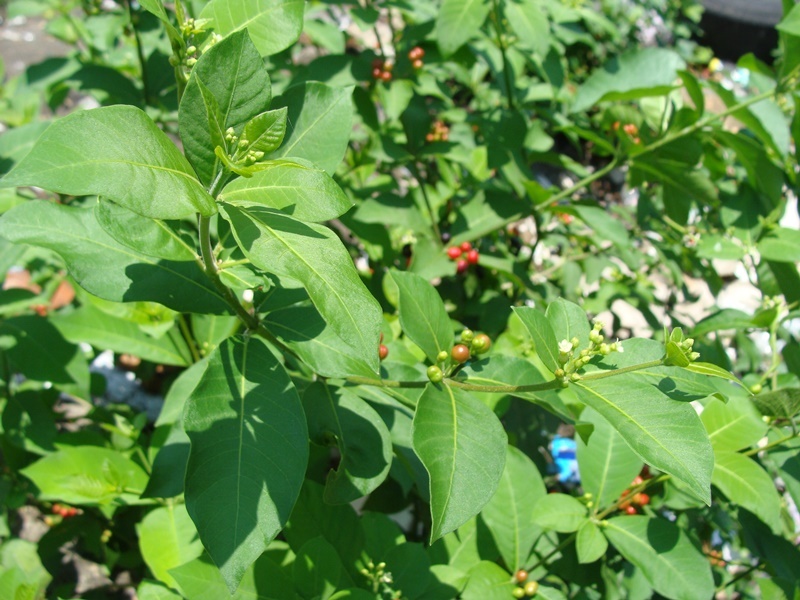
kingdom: Plantae
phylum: Tracheophyta
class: Magnoliopsida
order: Gentianales
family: Apocynaceae
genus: Rauvolfia
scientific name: Rauvolfia tetraphylla
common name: Four-leaf devil-pepper
